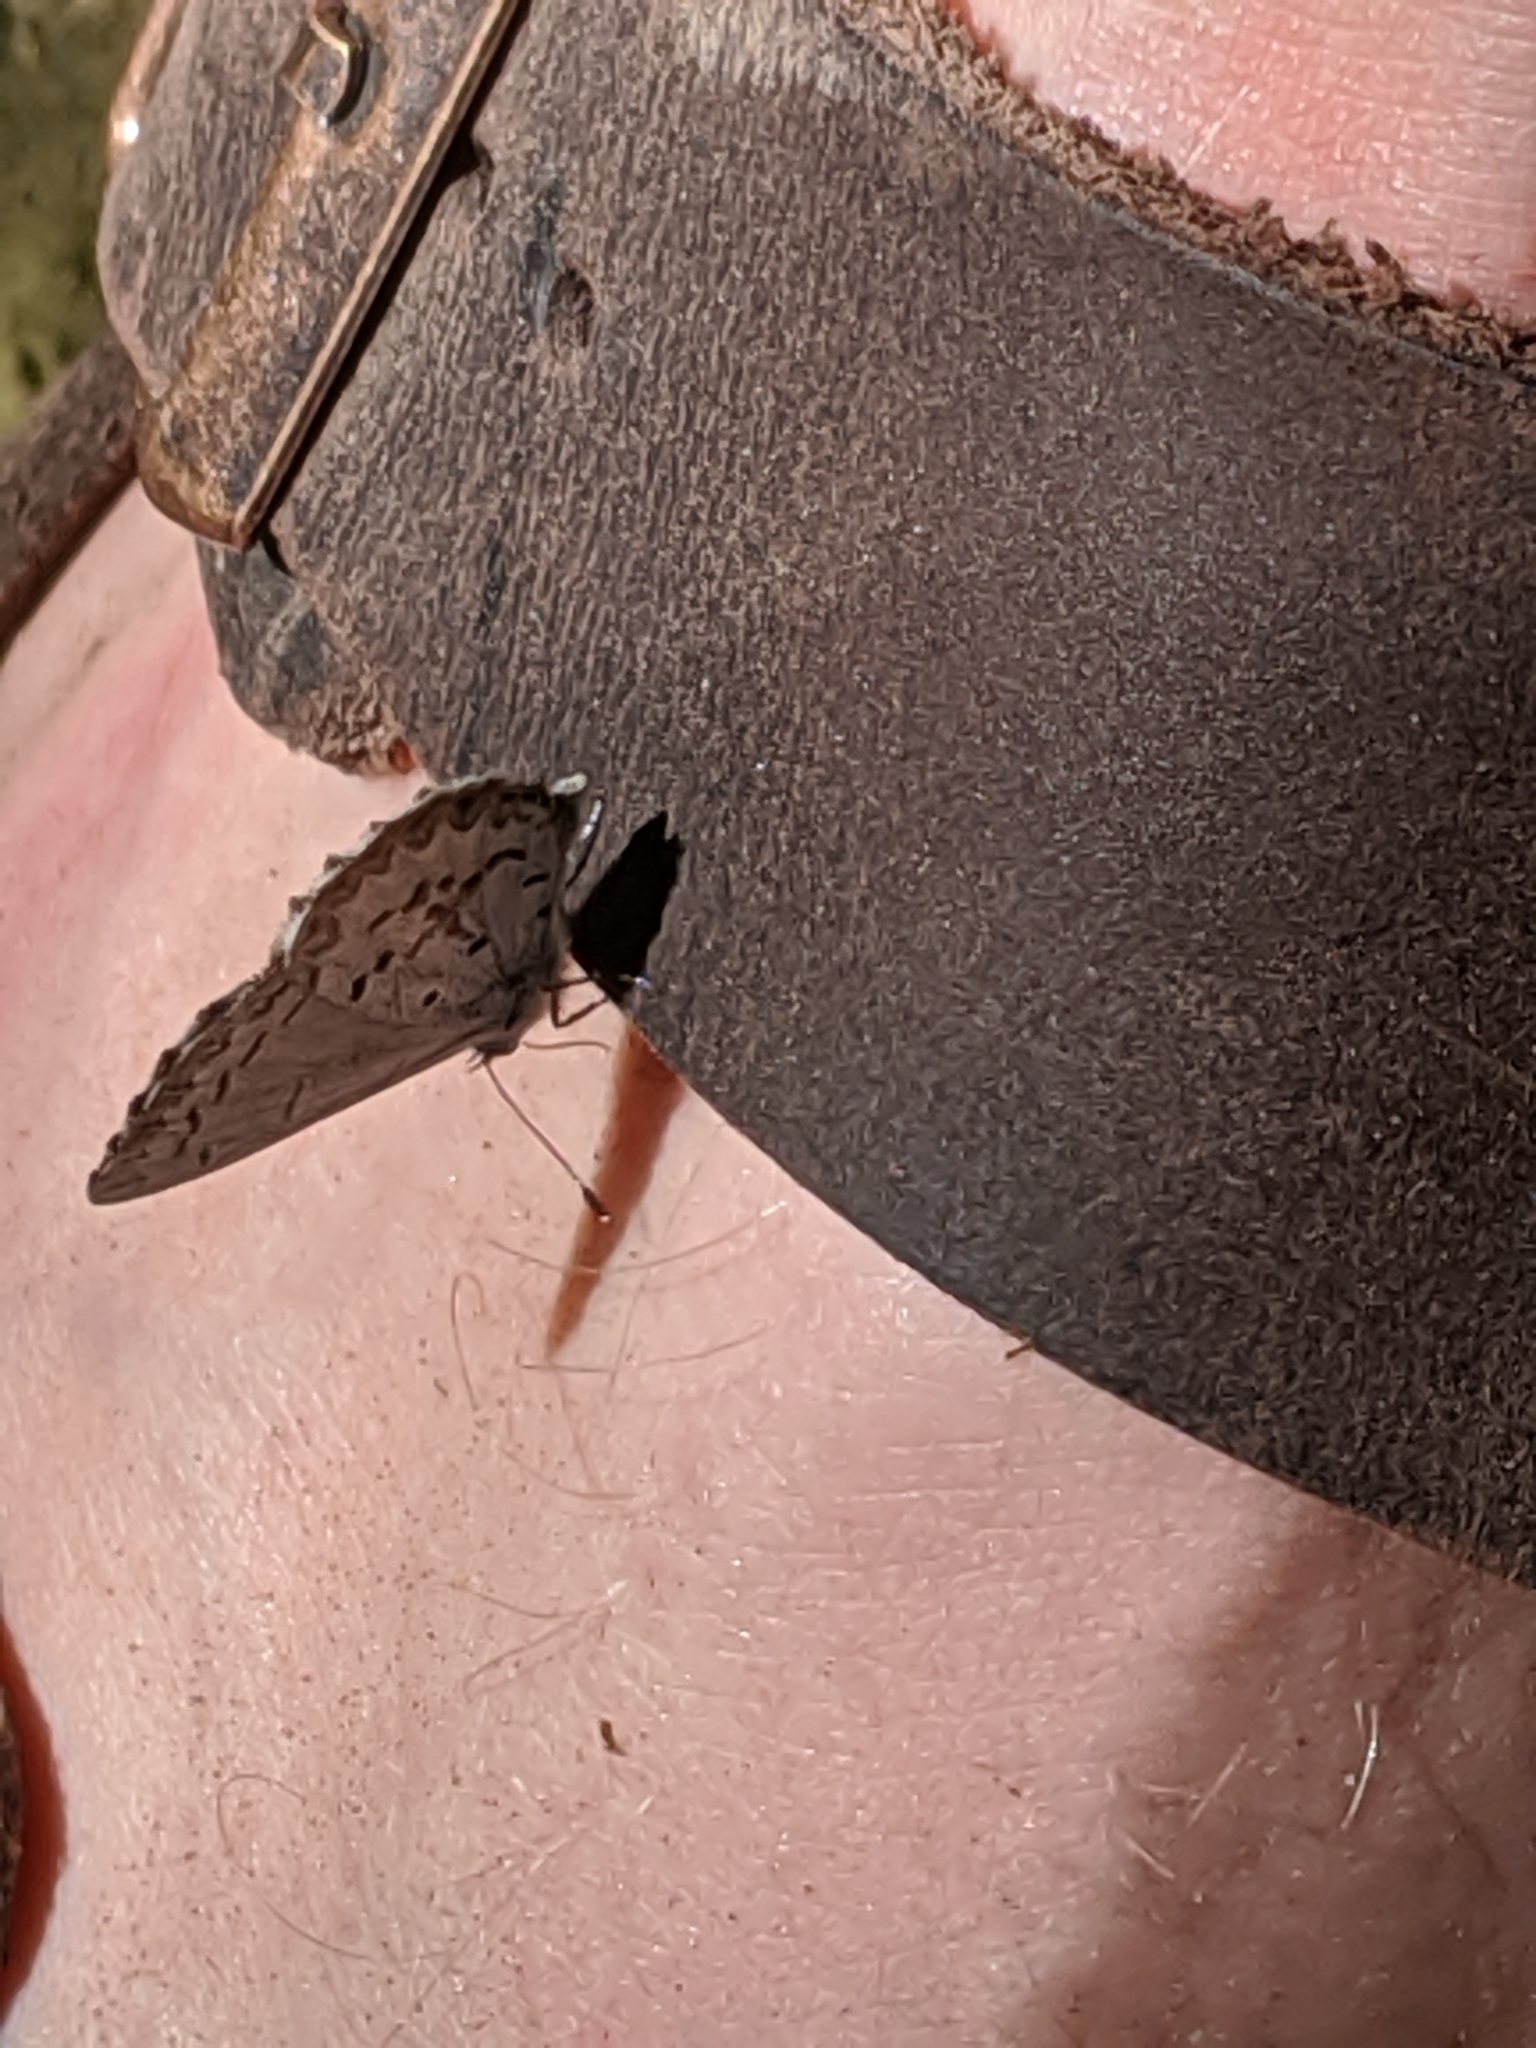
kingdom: Animalia
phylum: Arthropoda
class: Insecta
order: Lepidoptera
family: Lycaenidae
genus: Celastrina
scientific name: Celastrina lucia
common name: Lucia azure
